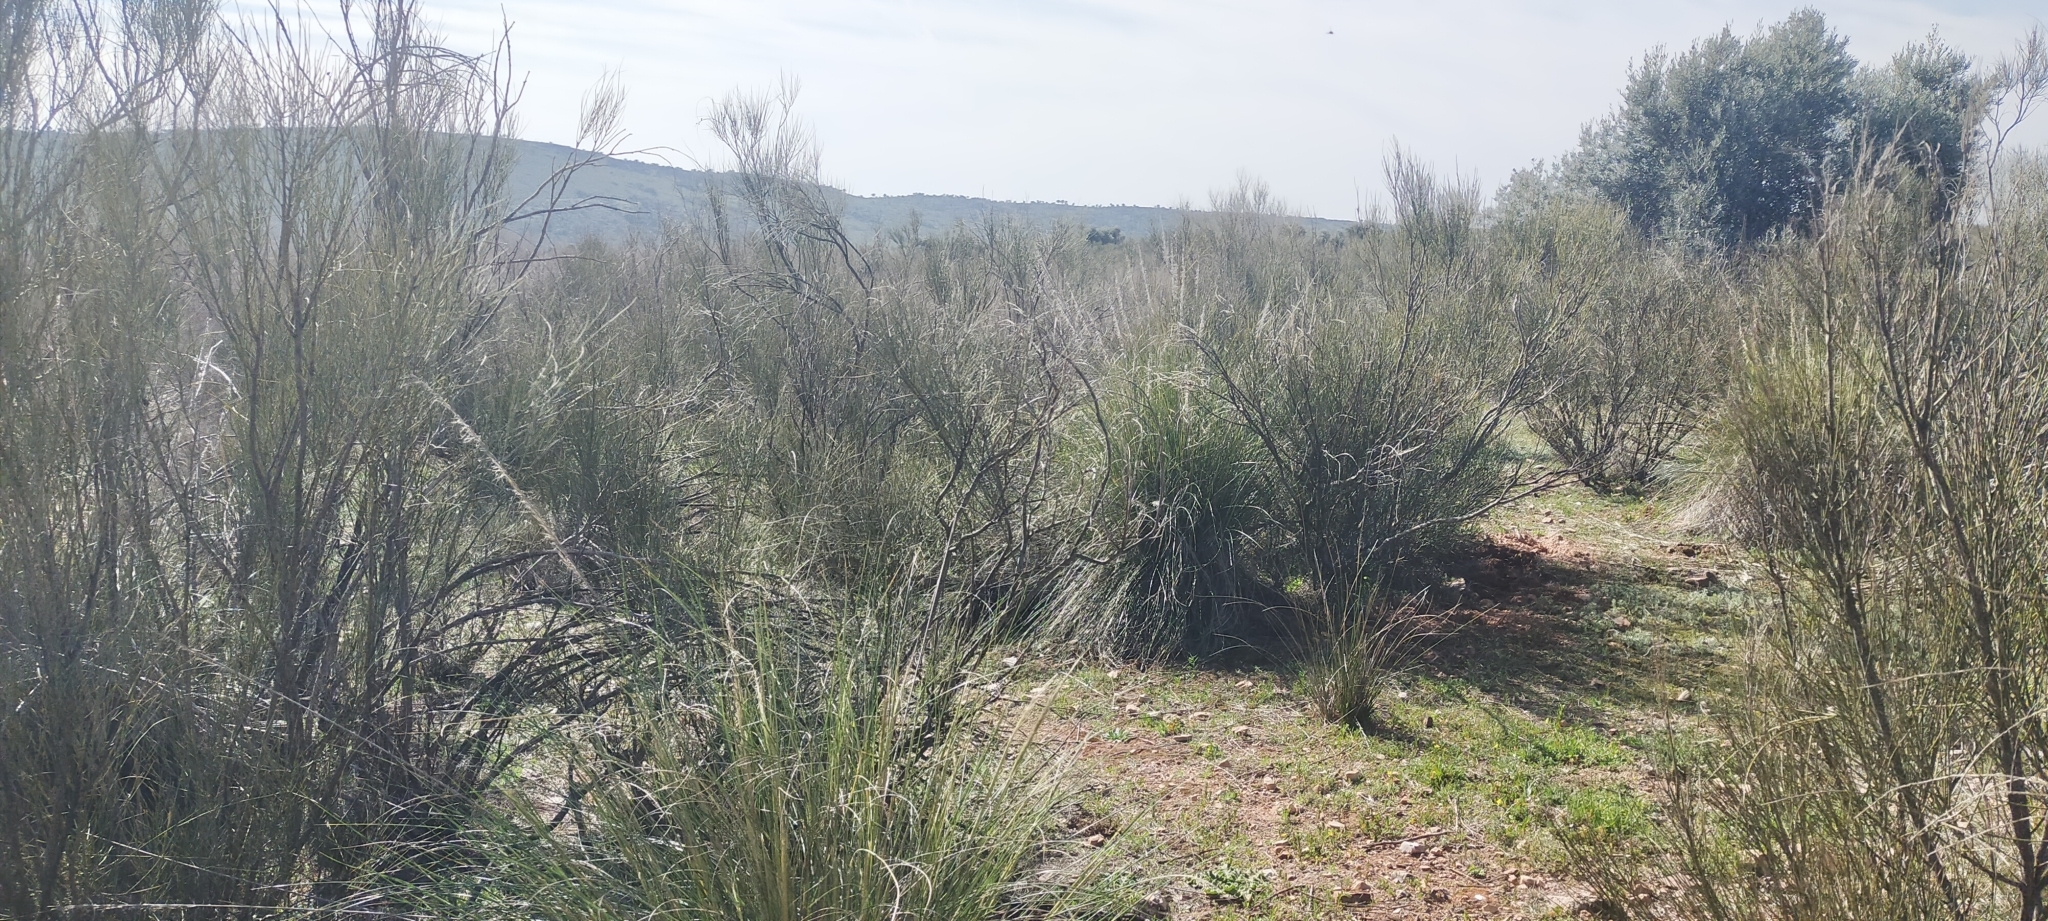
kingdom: Plantae
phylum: Tracheophyta
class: Magnoliopsida
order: Fabales
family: Fabaceae
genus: Retama
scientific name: Retama sphaerocarpa
